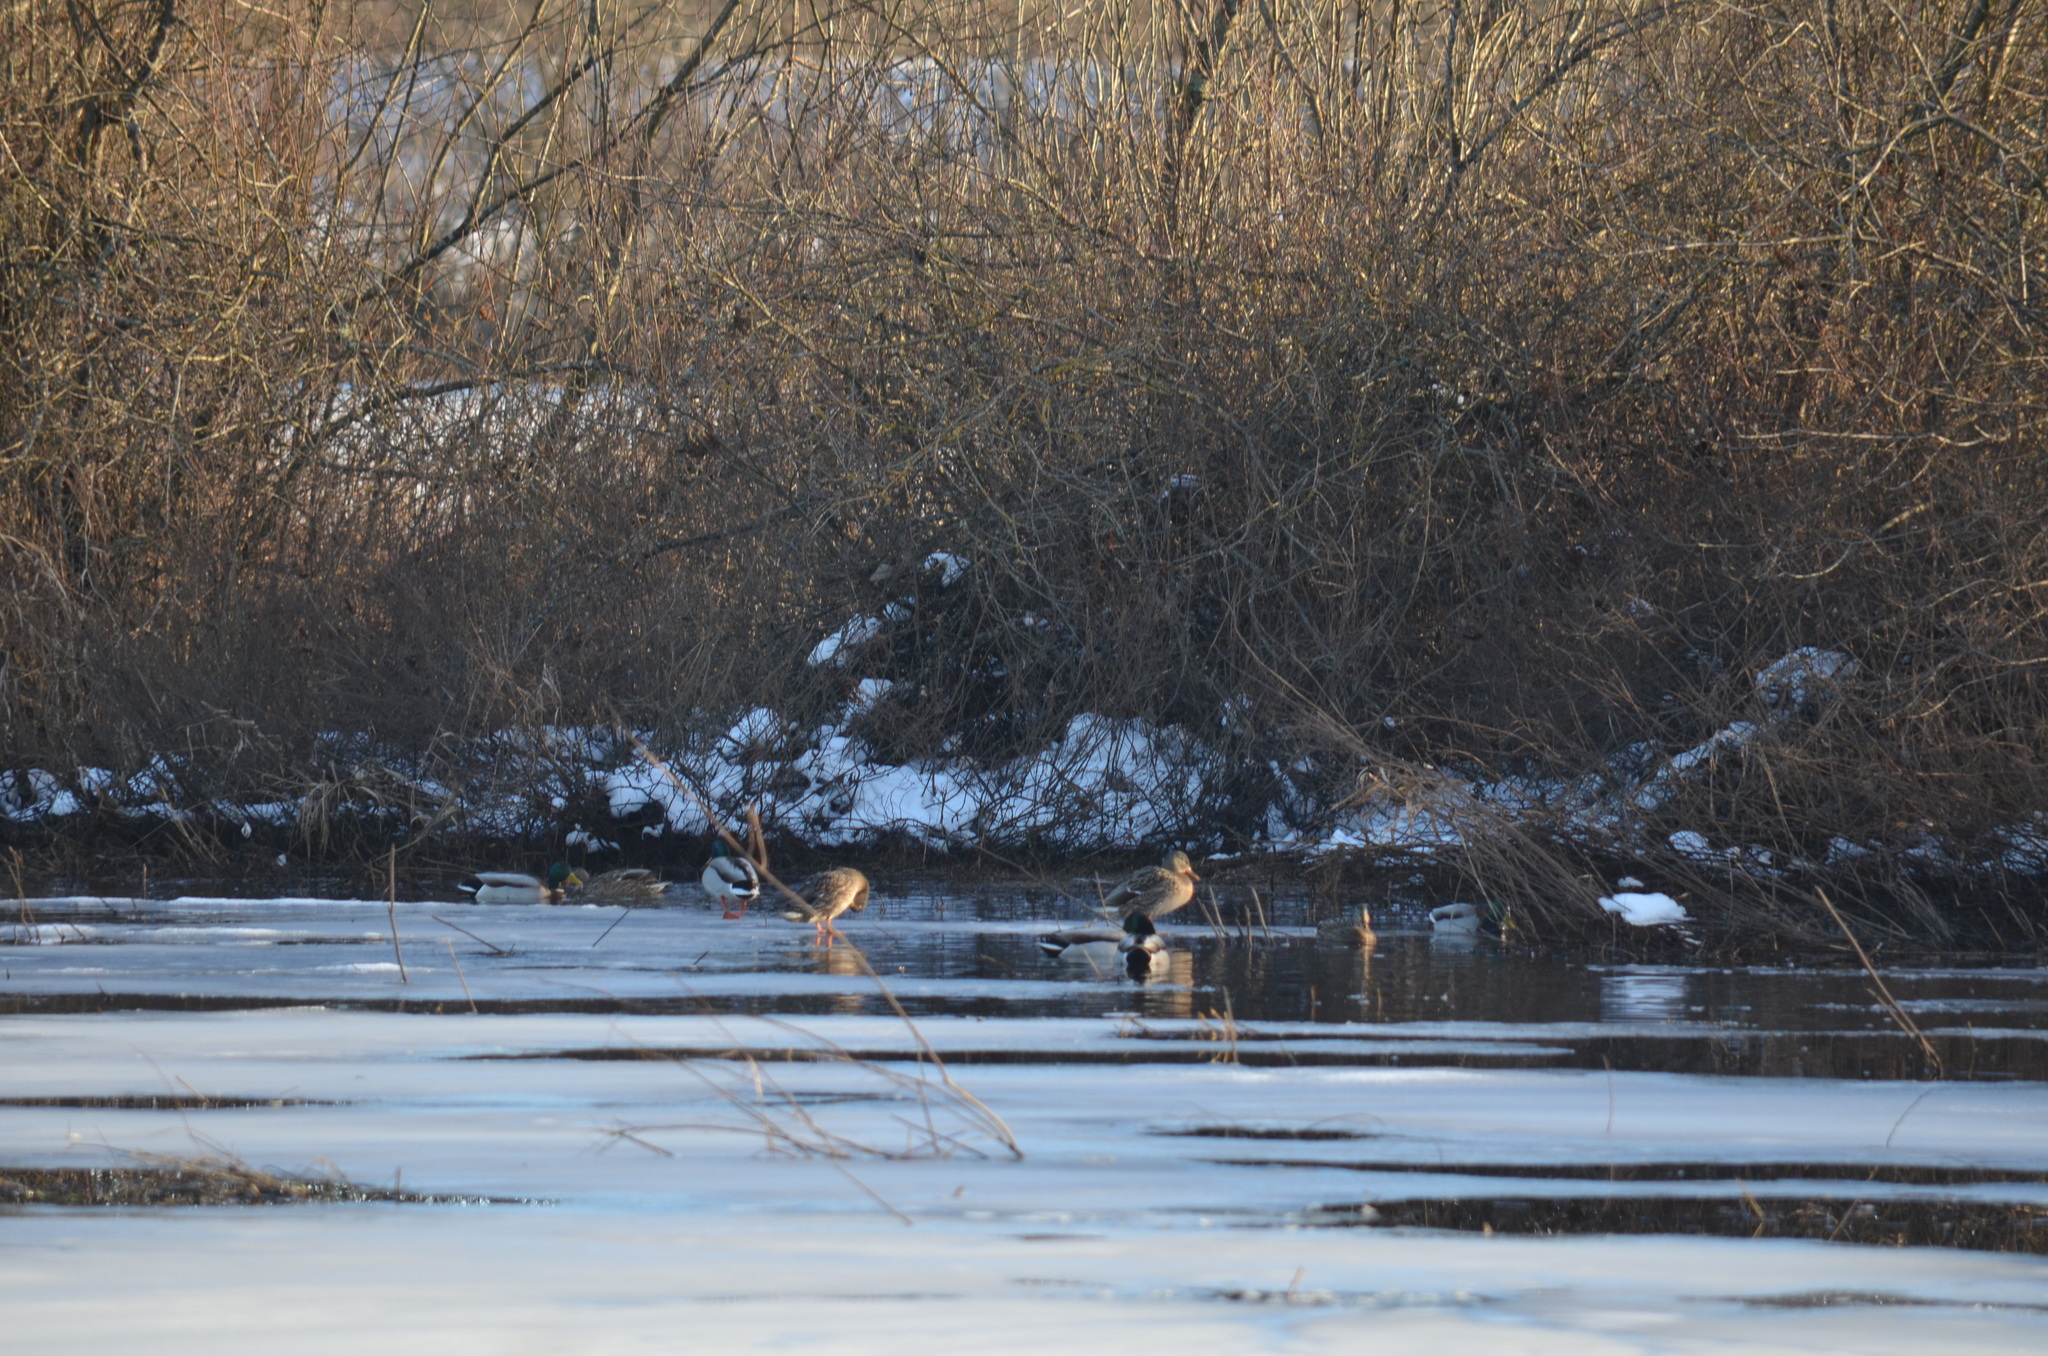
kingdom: Animalia
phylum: Chordata
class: Aves
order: Anseriformes
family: Anatidae
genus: Anas
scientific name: Anas platyrhynchos
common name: Mallard
